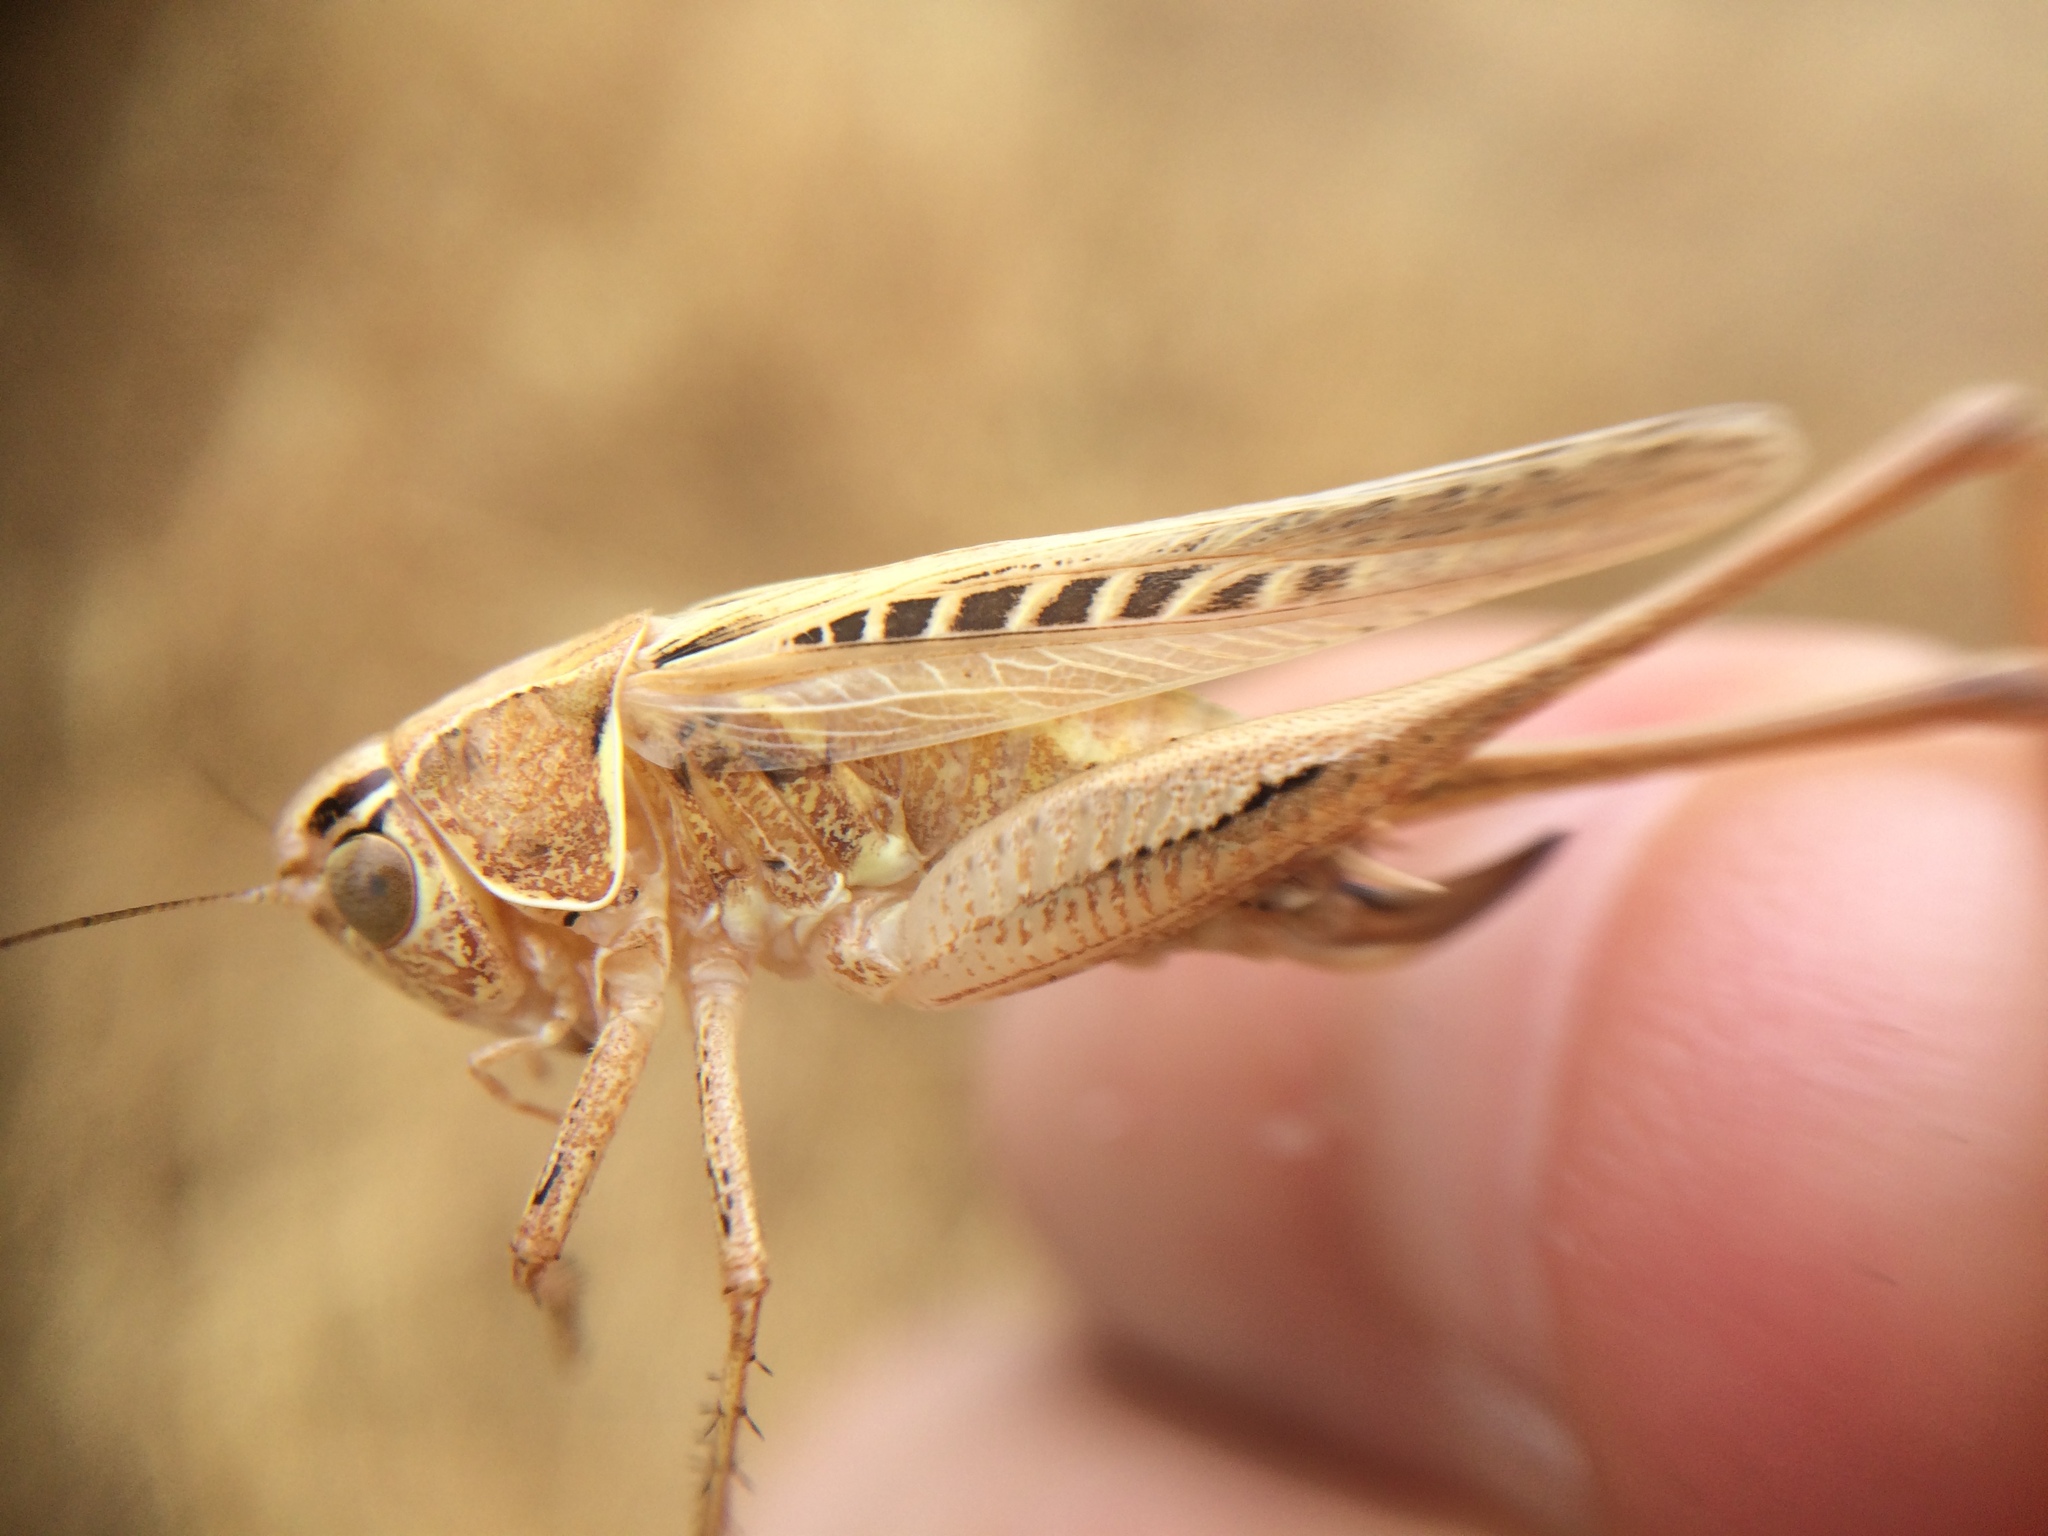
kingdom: Animalia
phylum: Arthropoda
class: Insecta
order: Orthoptera
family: Tettigoniidae
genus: Tessellana
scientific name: Tessellana tessellata
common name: Grasshopper
